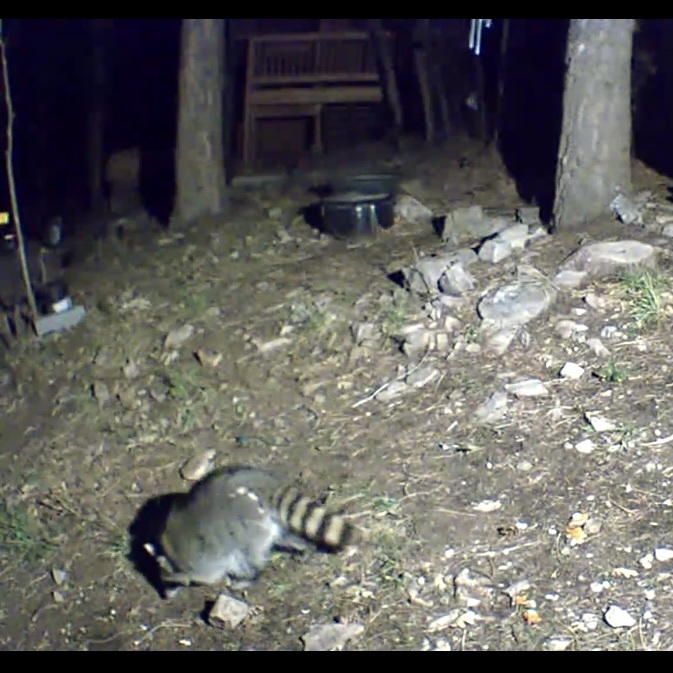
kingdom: Animalia
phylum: Chordata
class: Mammalia
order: Carnivora
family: Procyonidae
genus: Procyon
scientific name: Procyon lotor
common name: Raccoon
